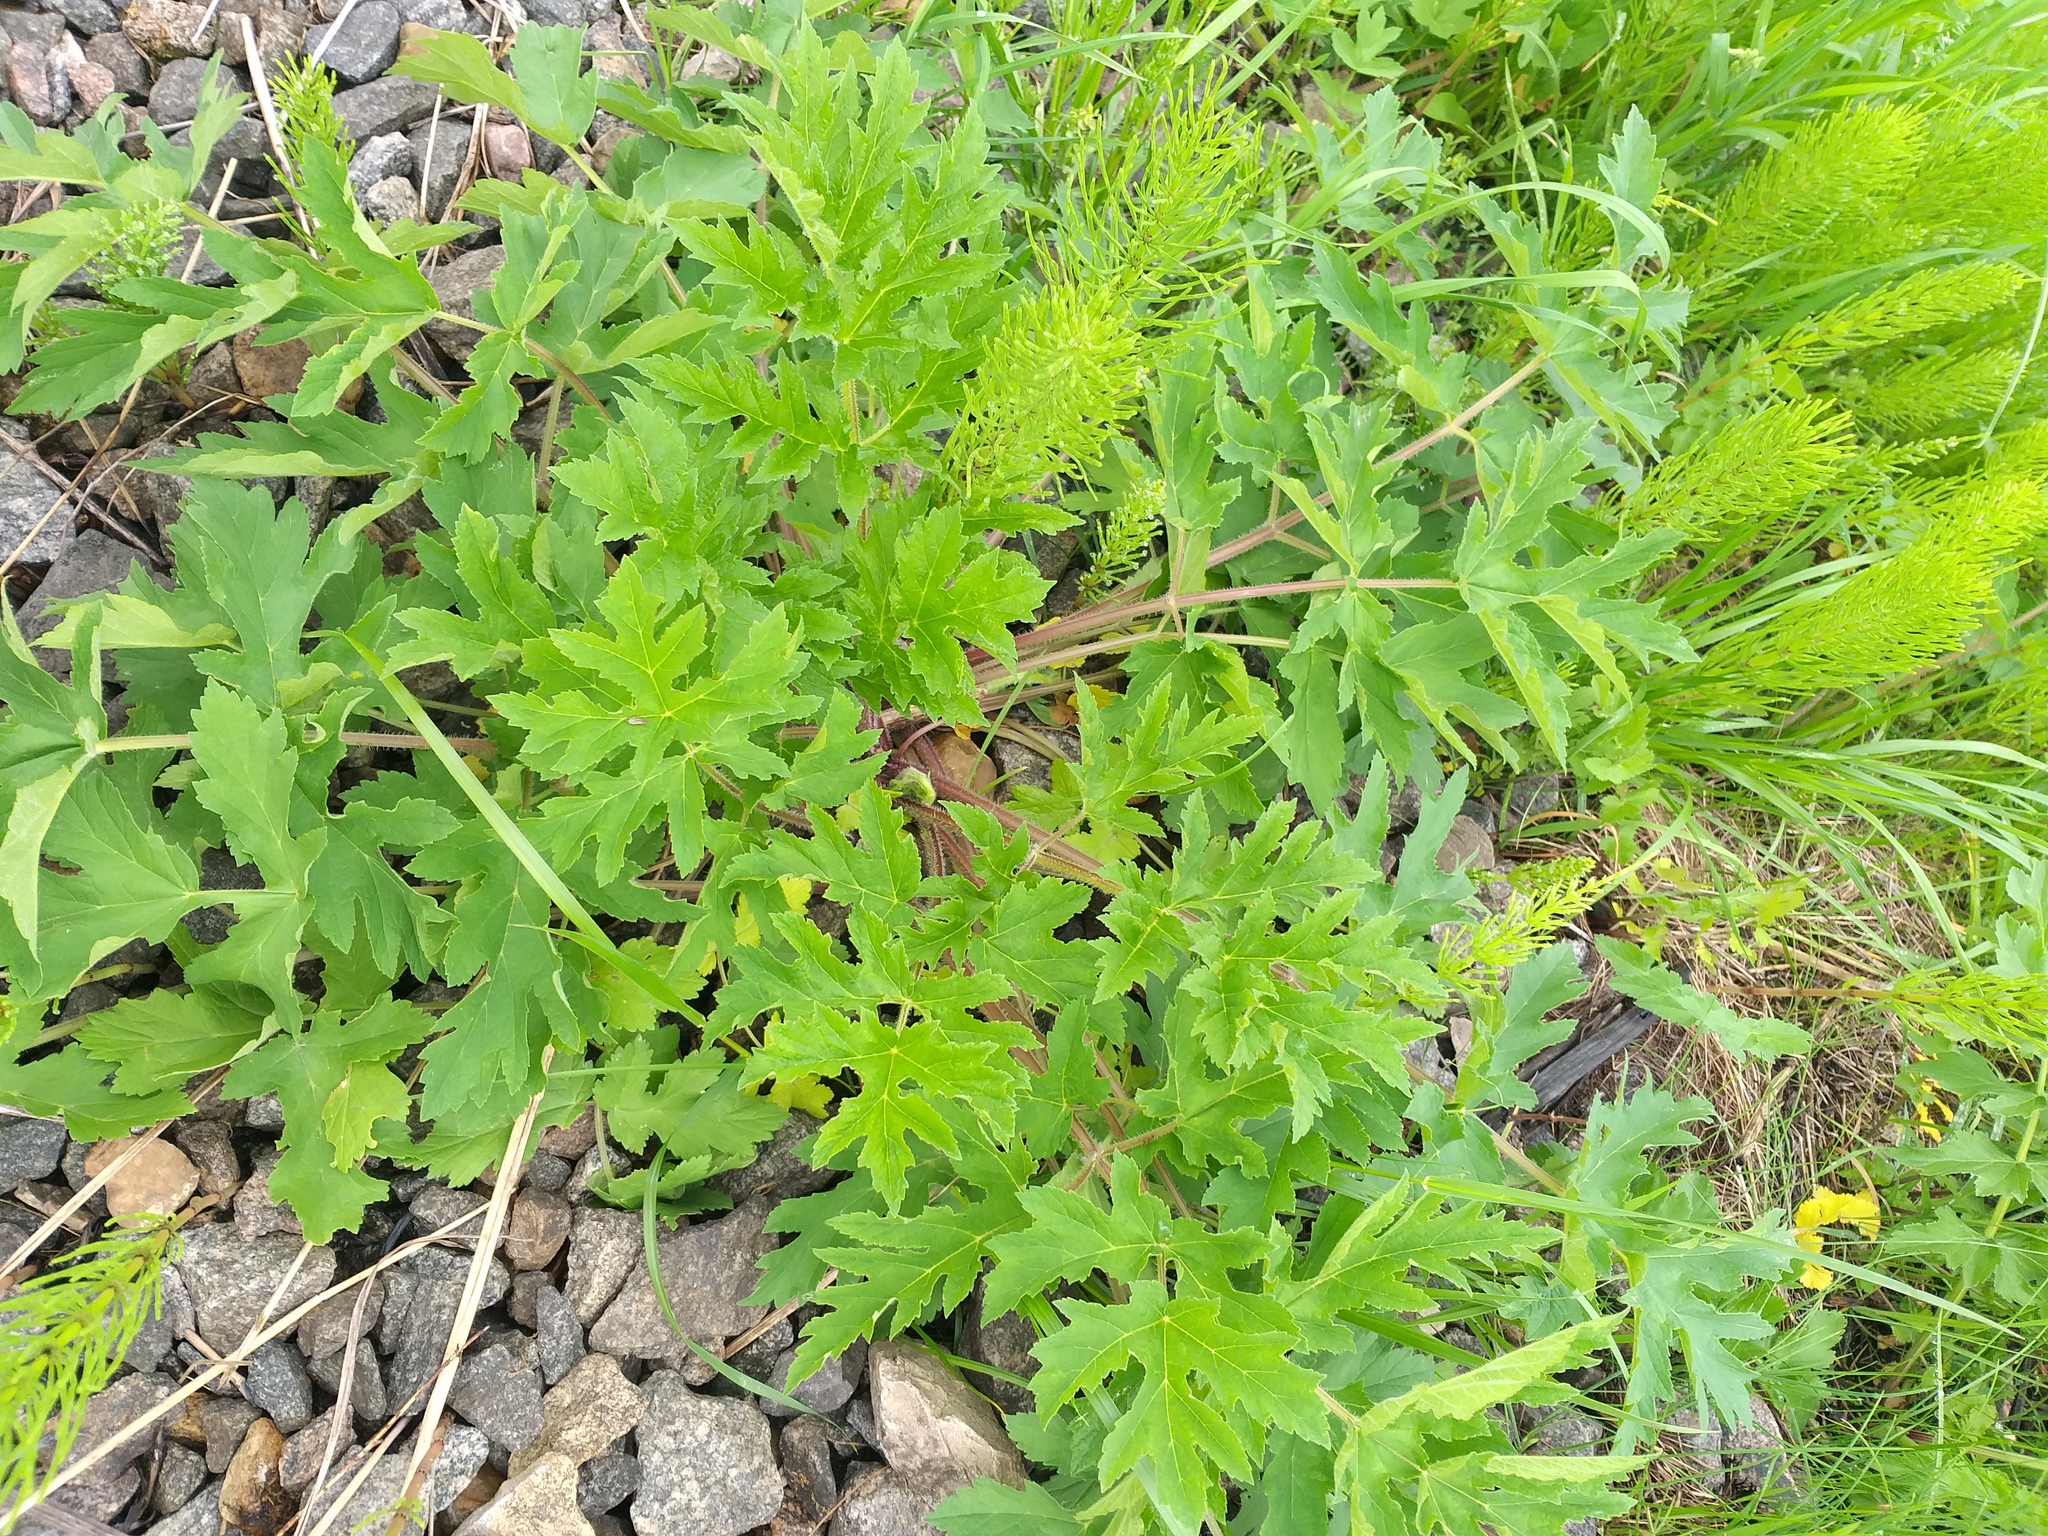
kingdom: Plantae
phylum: Tracheophyta
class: Magnoliopsida
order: Apiales
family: Apiaceae
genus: Heracleum
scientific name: Heracleum sphondylium
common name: Hogweed
